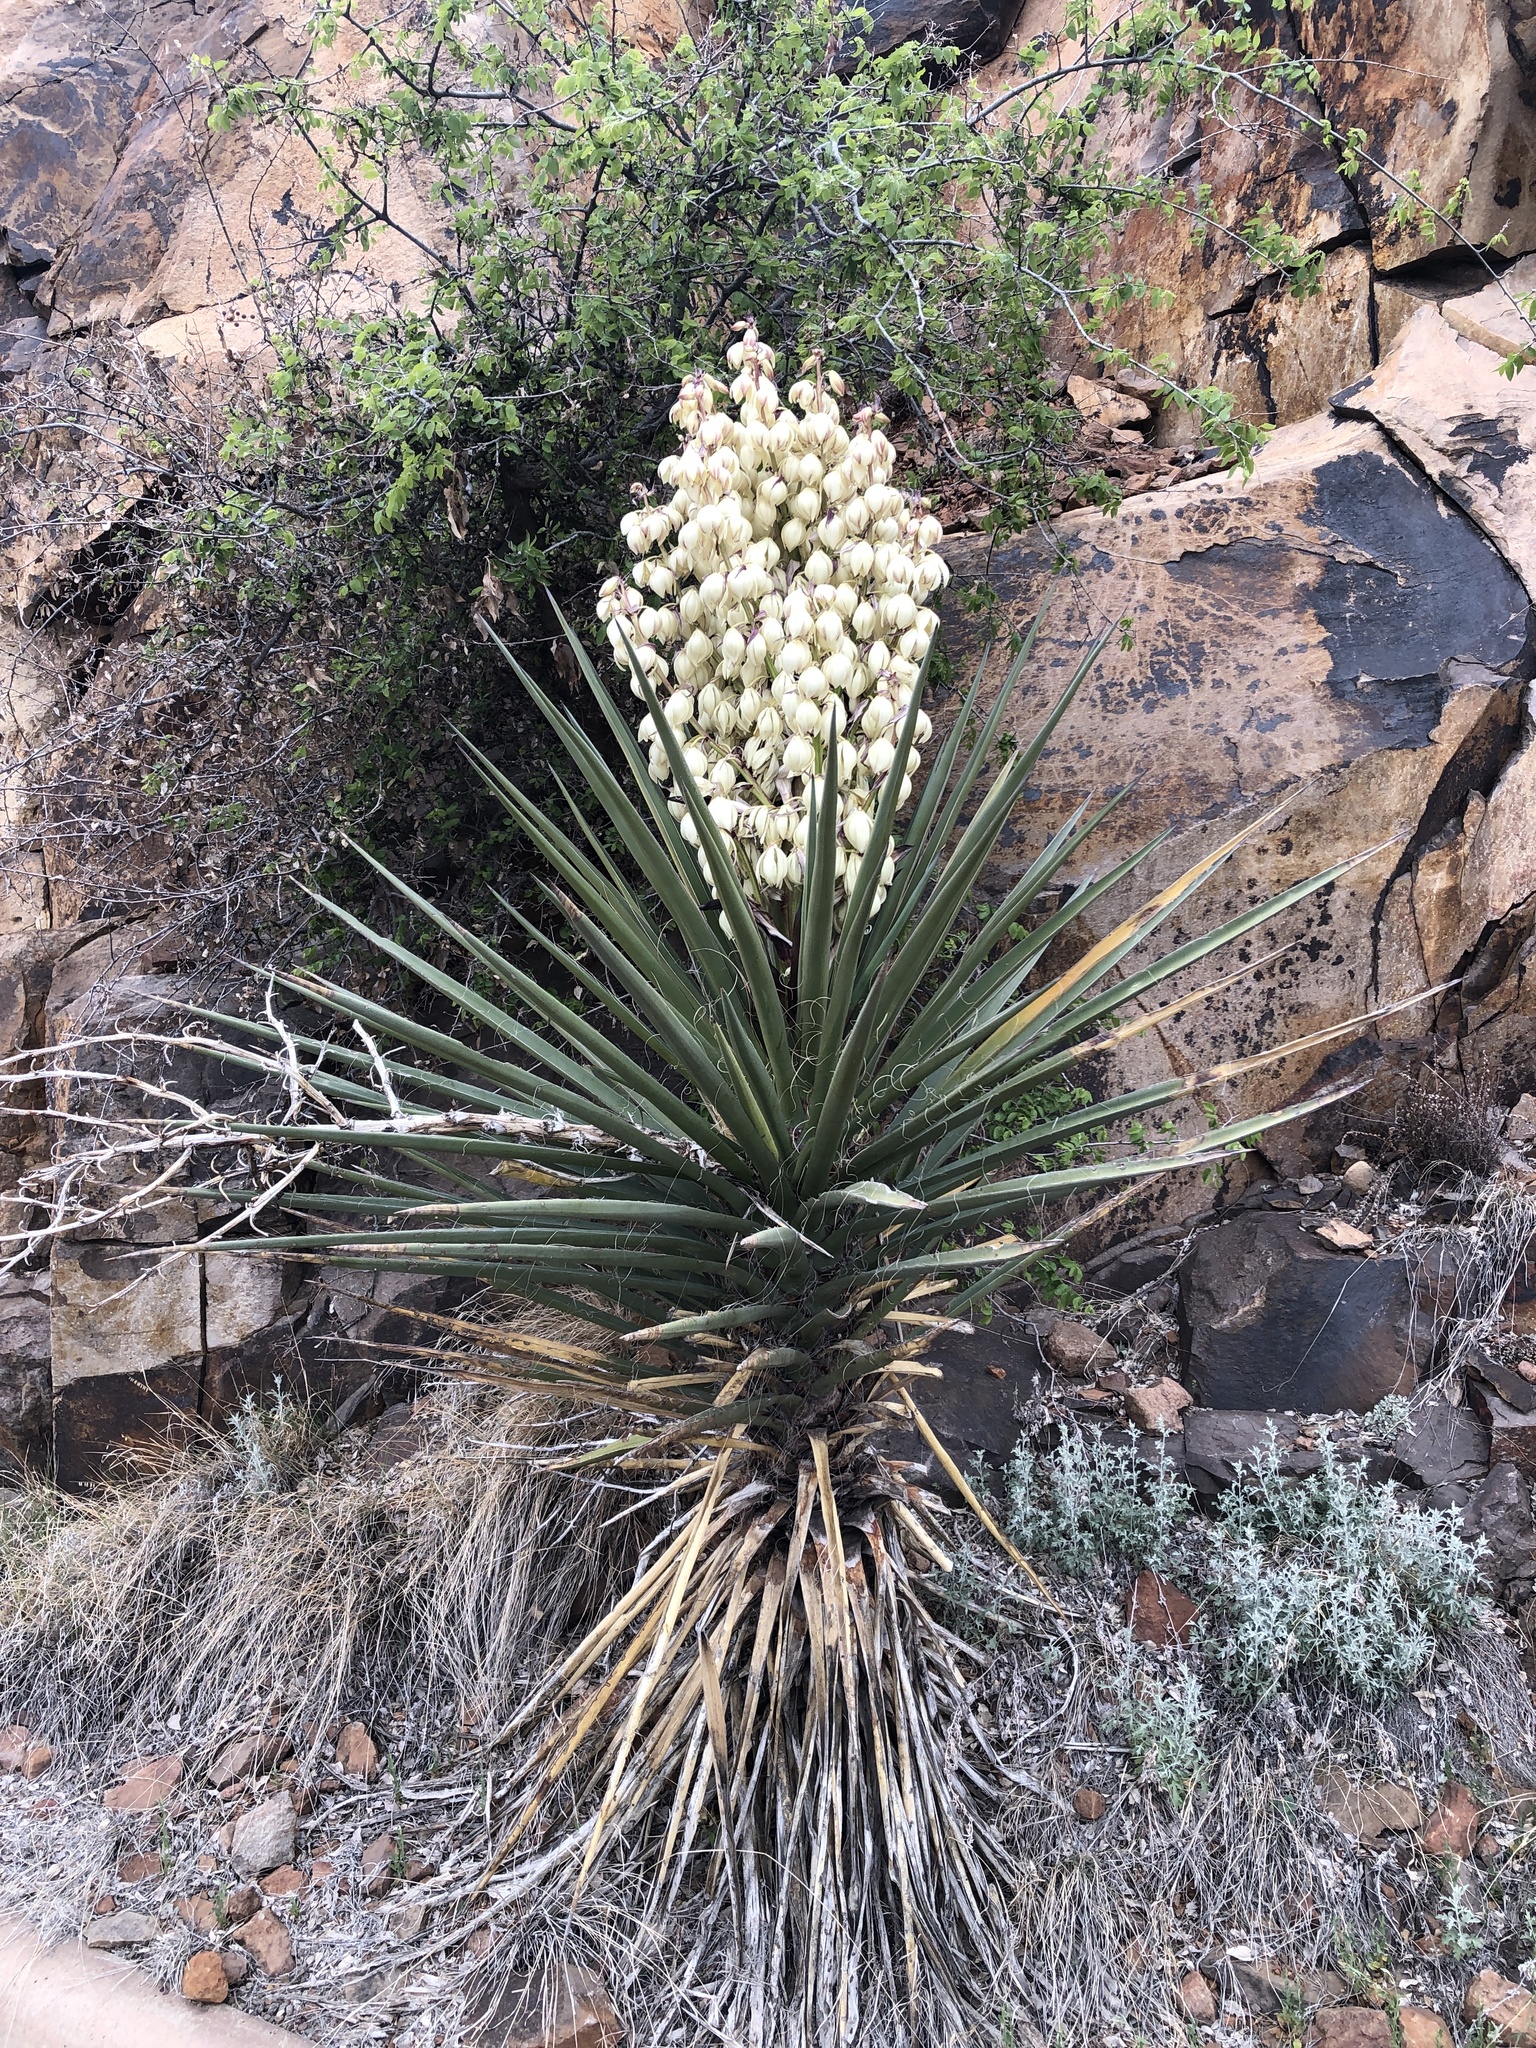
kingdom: Plantae
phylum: Tracheophyta
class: Liliopsida
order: Asparagales
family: Asparagaceae
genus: Yucca
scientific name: Yucca treculiana
